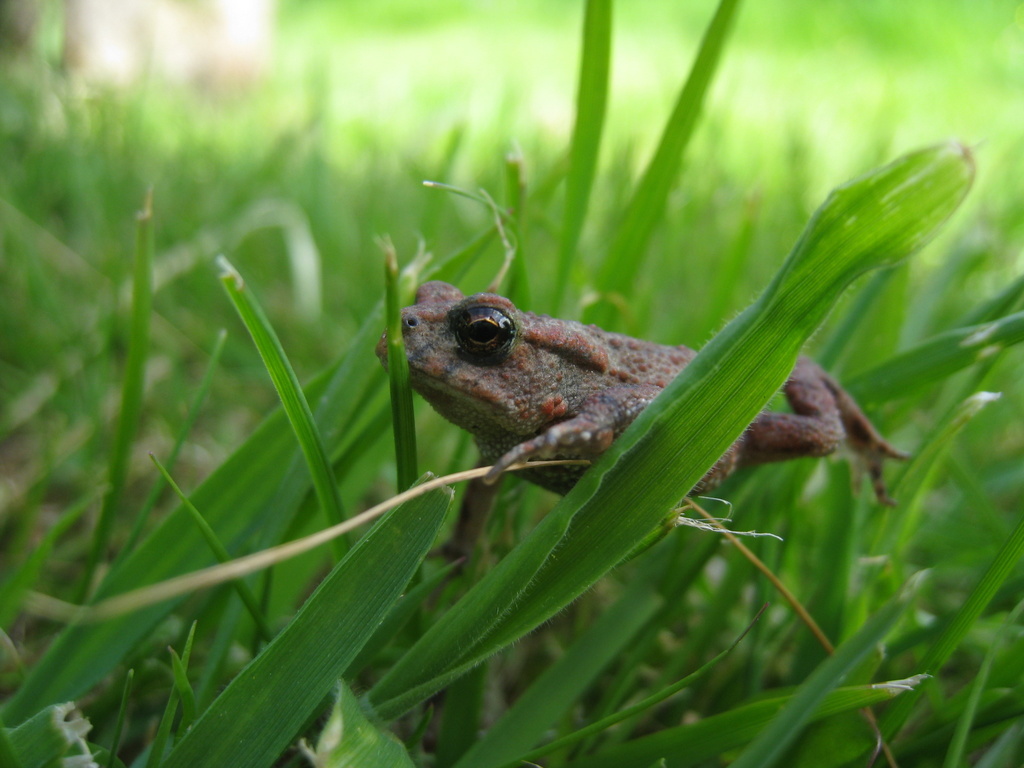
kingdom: Animalia
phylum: Chordata
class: Amphibia
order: Anura
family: Bufonidae
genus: Bufo
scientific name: Bufo bufo
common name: Common toad
